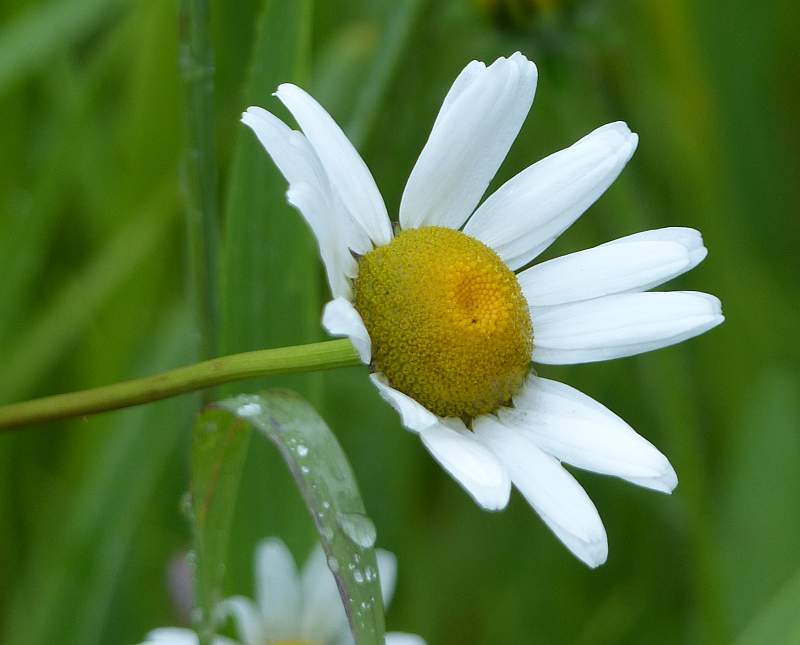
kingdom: Plantae
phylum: Tracheophyta
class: Magnoliopsida
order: Asterales
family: Asteraceae
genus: Leucanthemum
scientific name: Leucanthemum vulgare
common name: Oxeye daisy
